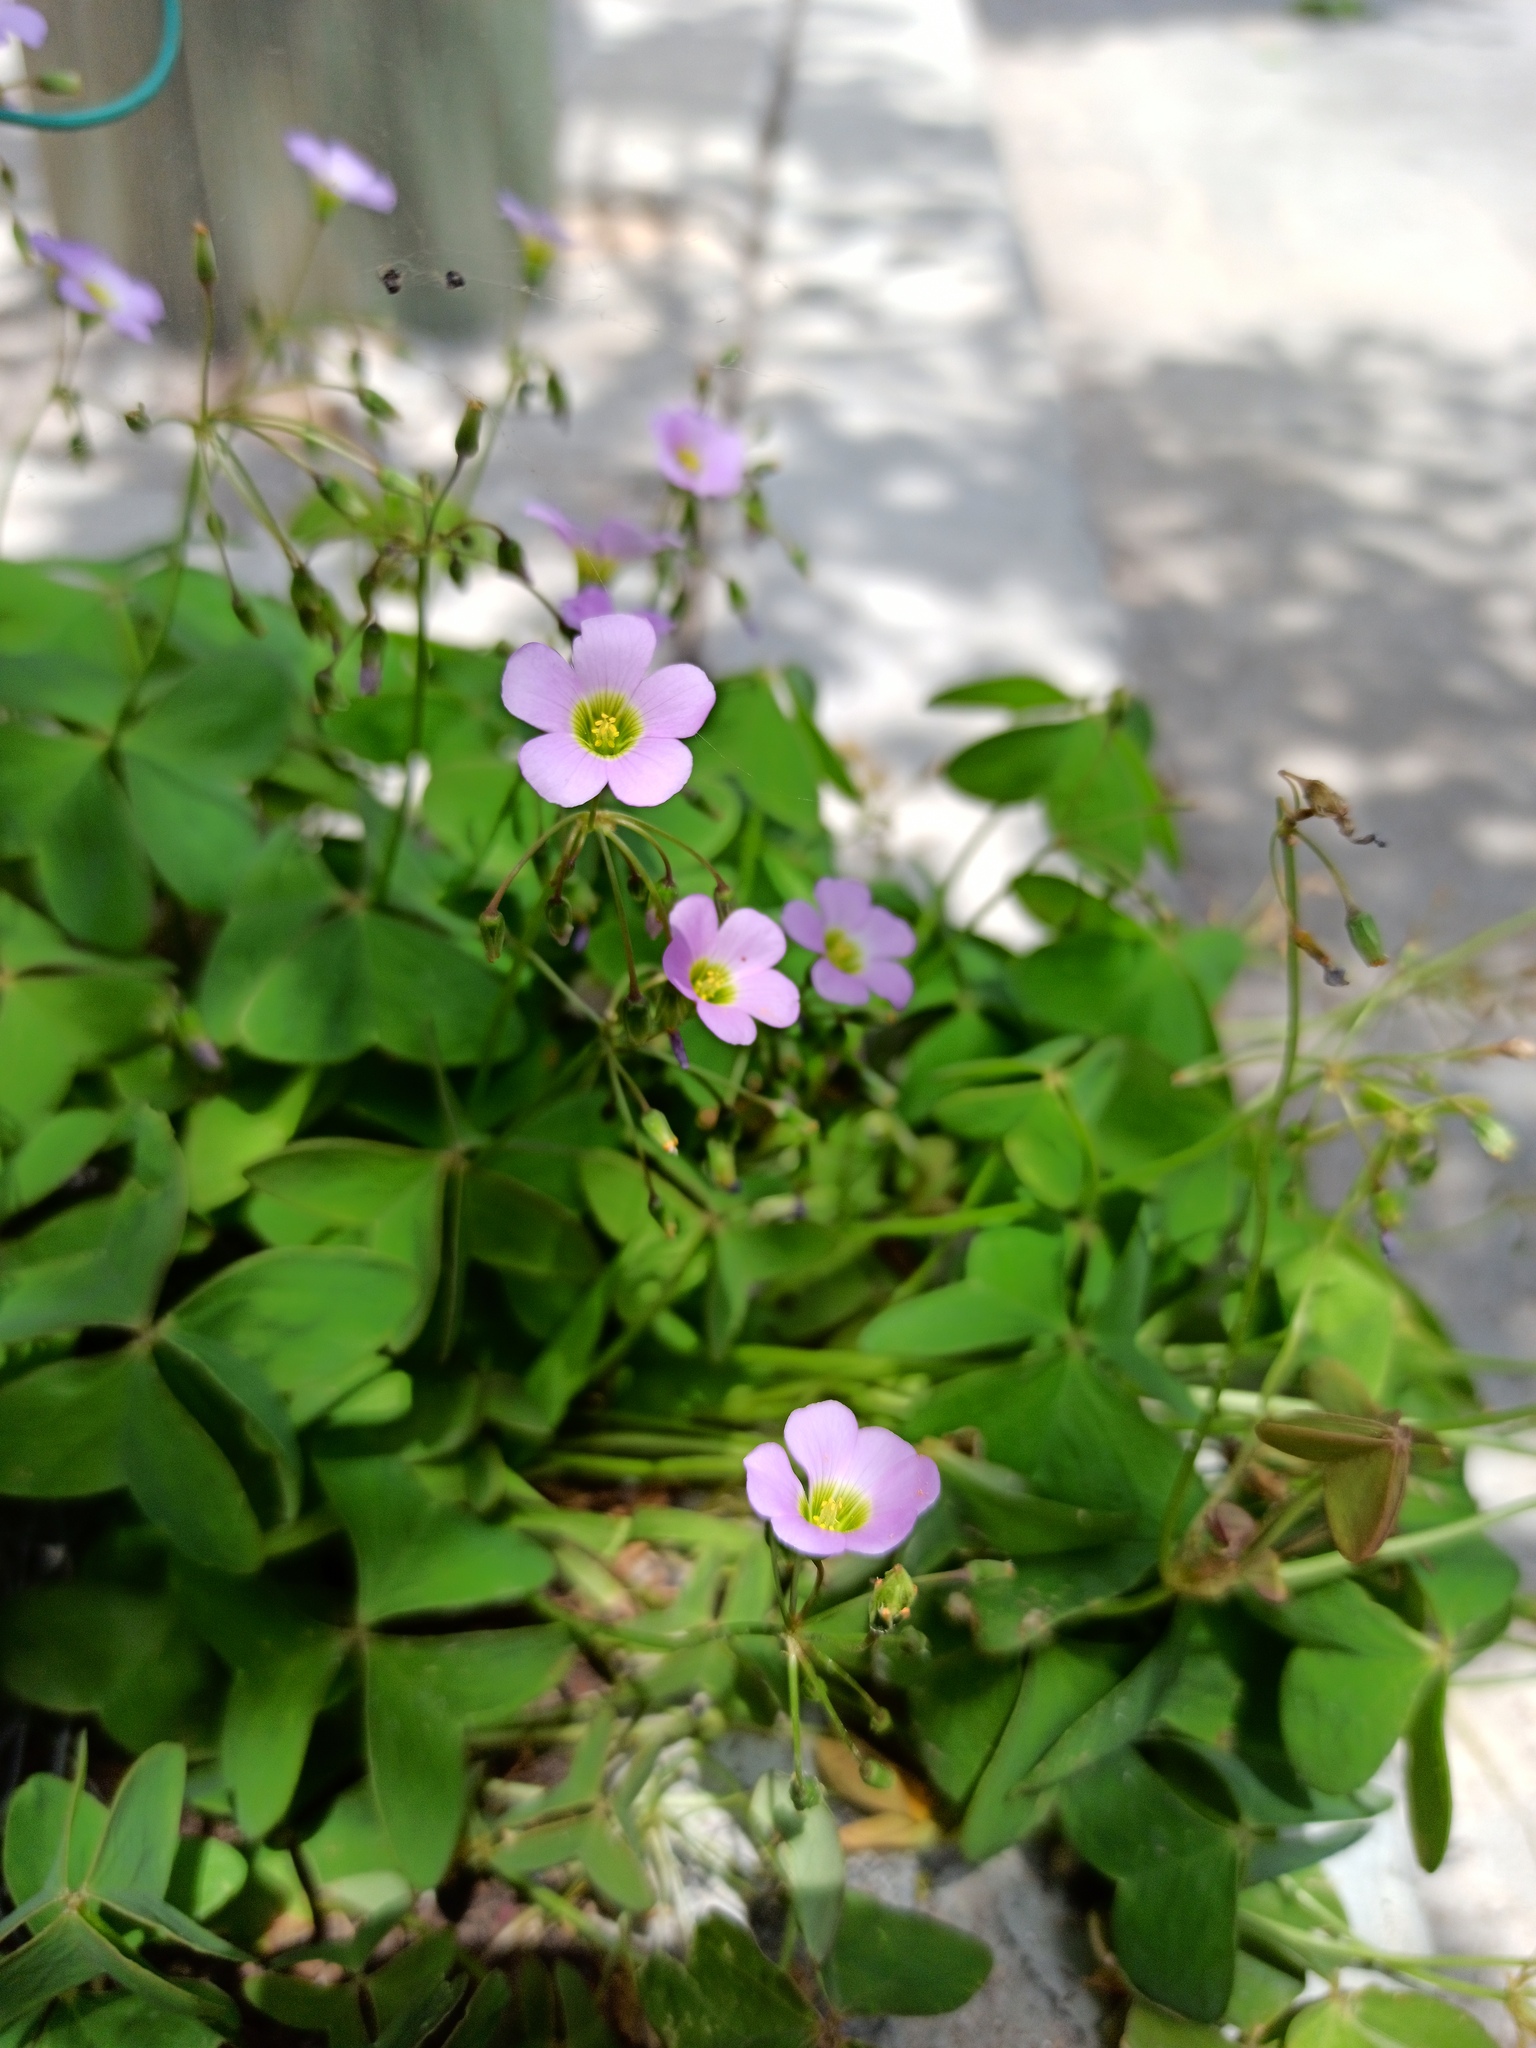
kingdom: Plantae
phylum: Tracheophyta
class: Magnoliopsida
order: Oxalidales
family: Oxalidaceae
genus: Oxalis
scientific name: Oxalis latifolia
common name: Garden pink-sorrel
